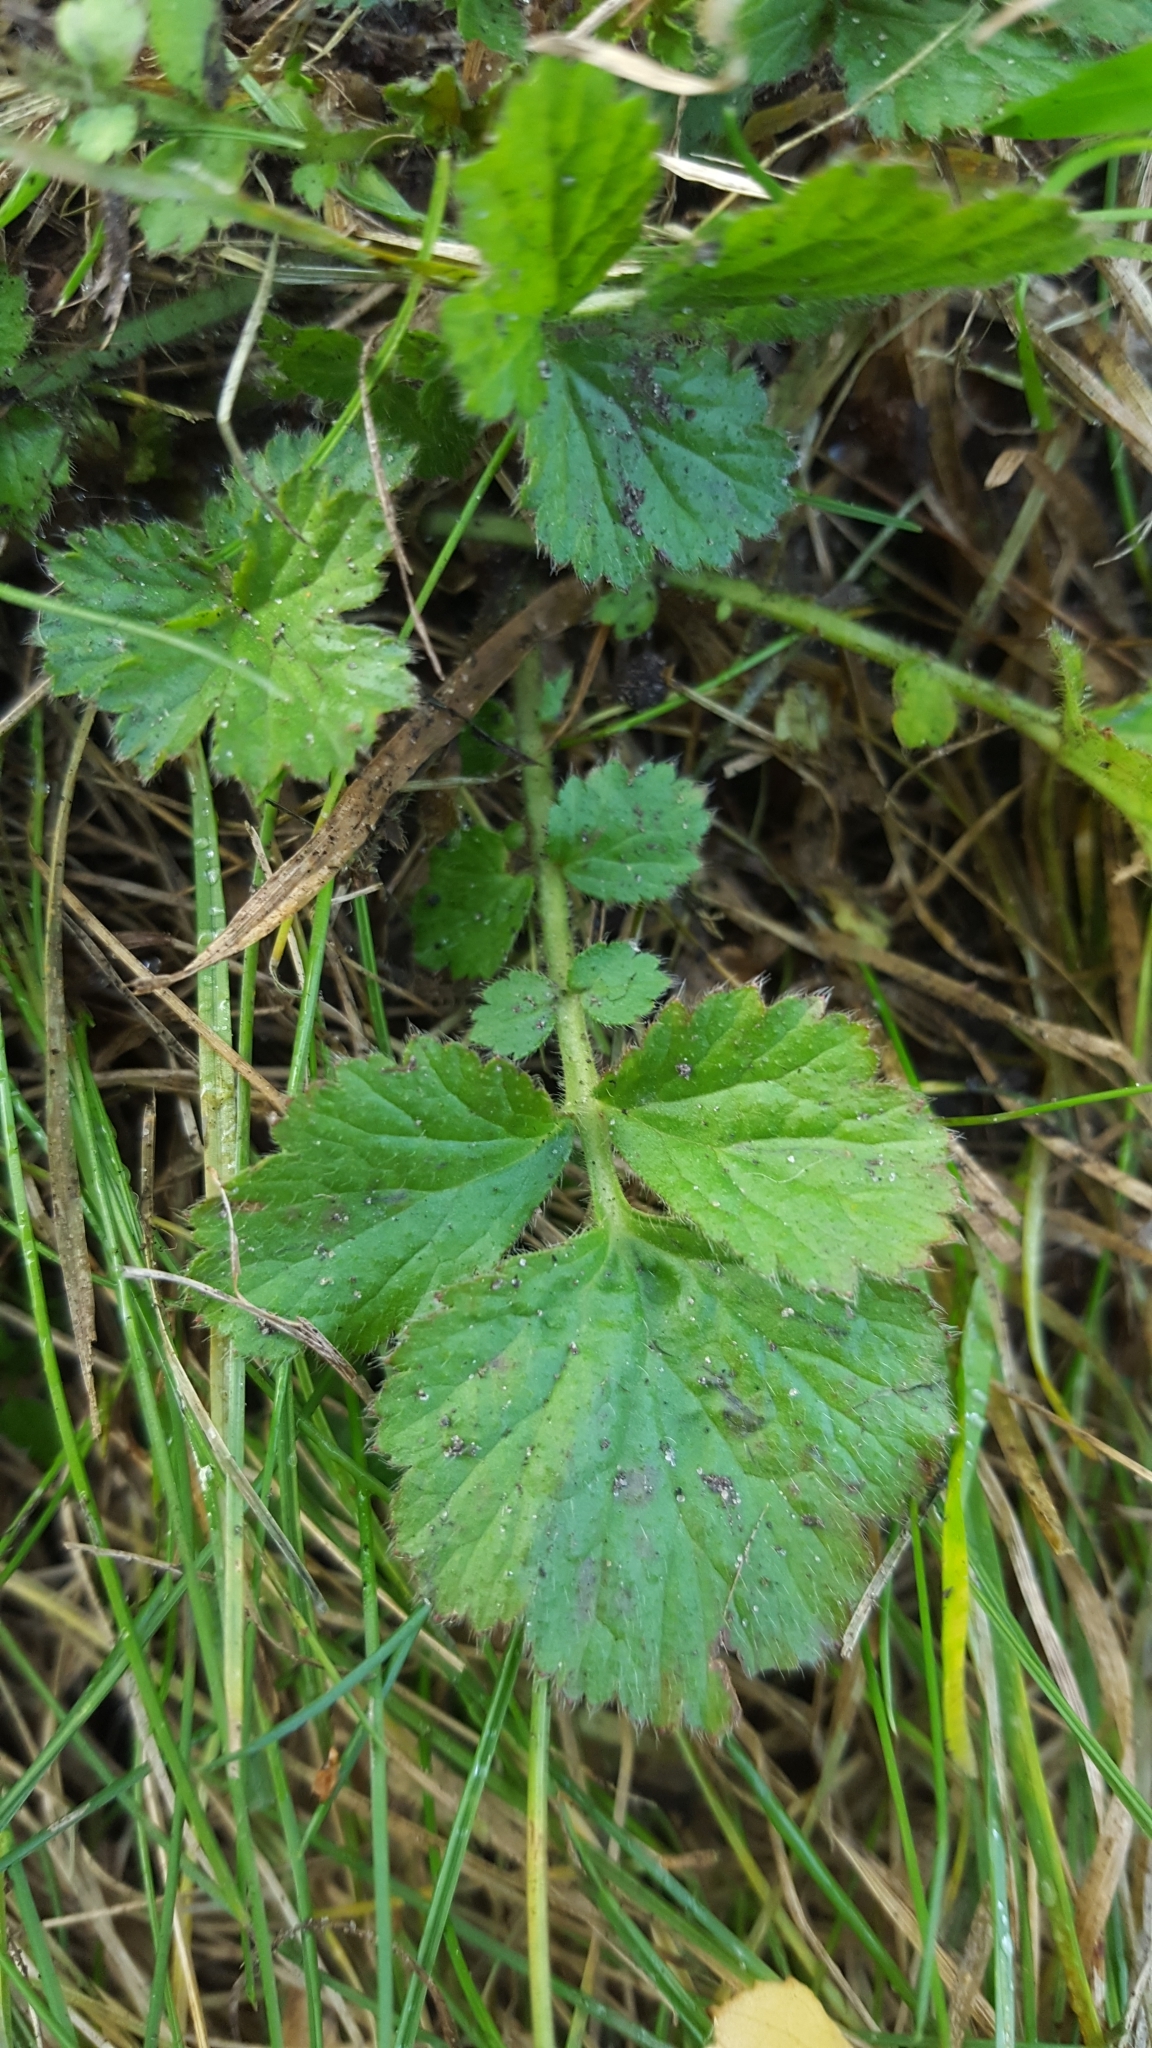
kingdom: Plantae
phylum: Tracheophyta
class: Magnoliopsida
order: Rosales
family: Rosaceae
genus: Geum
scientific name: Geum urbanum
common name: Wood avens
